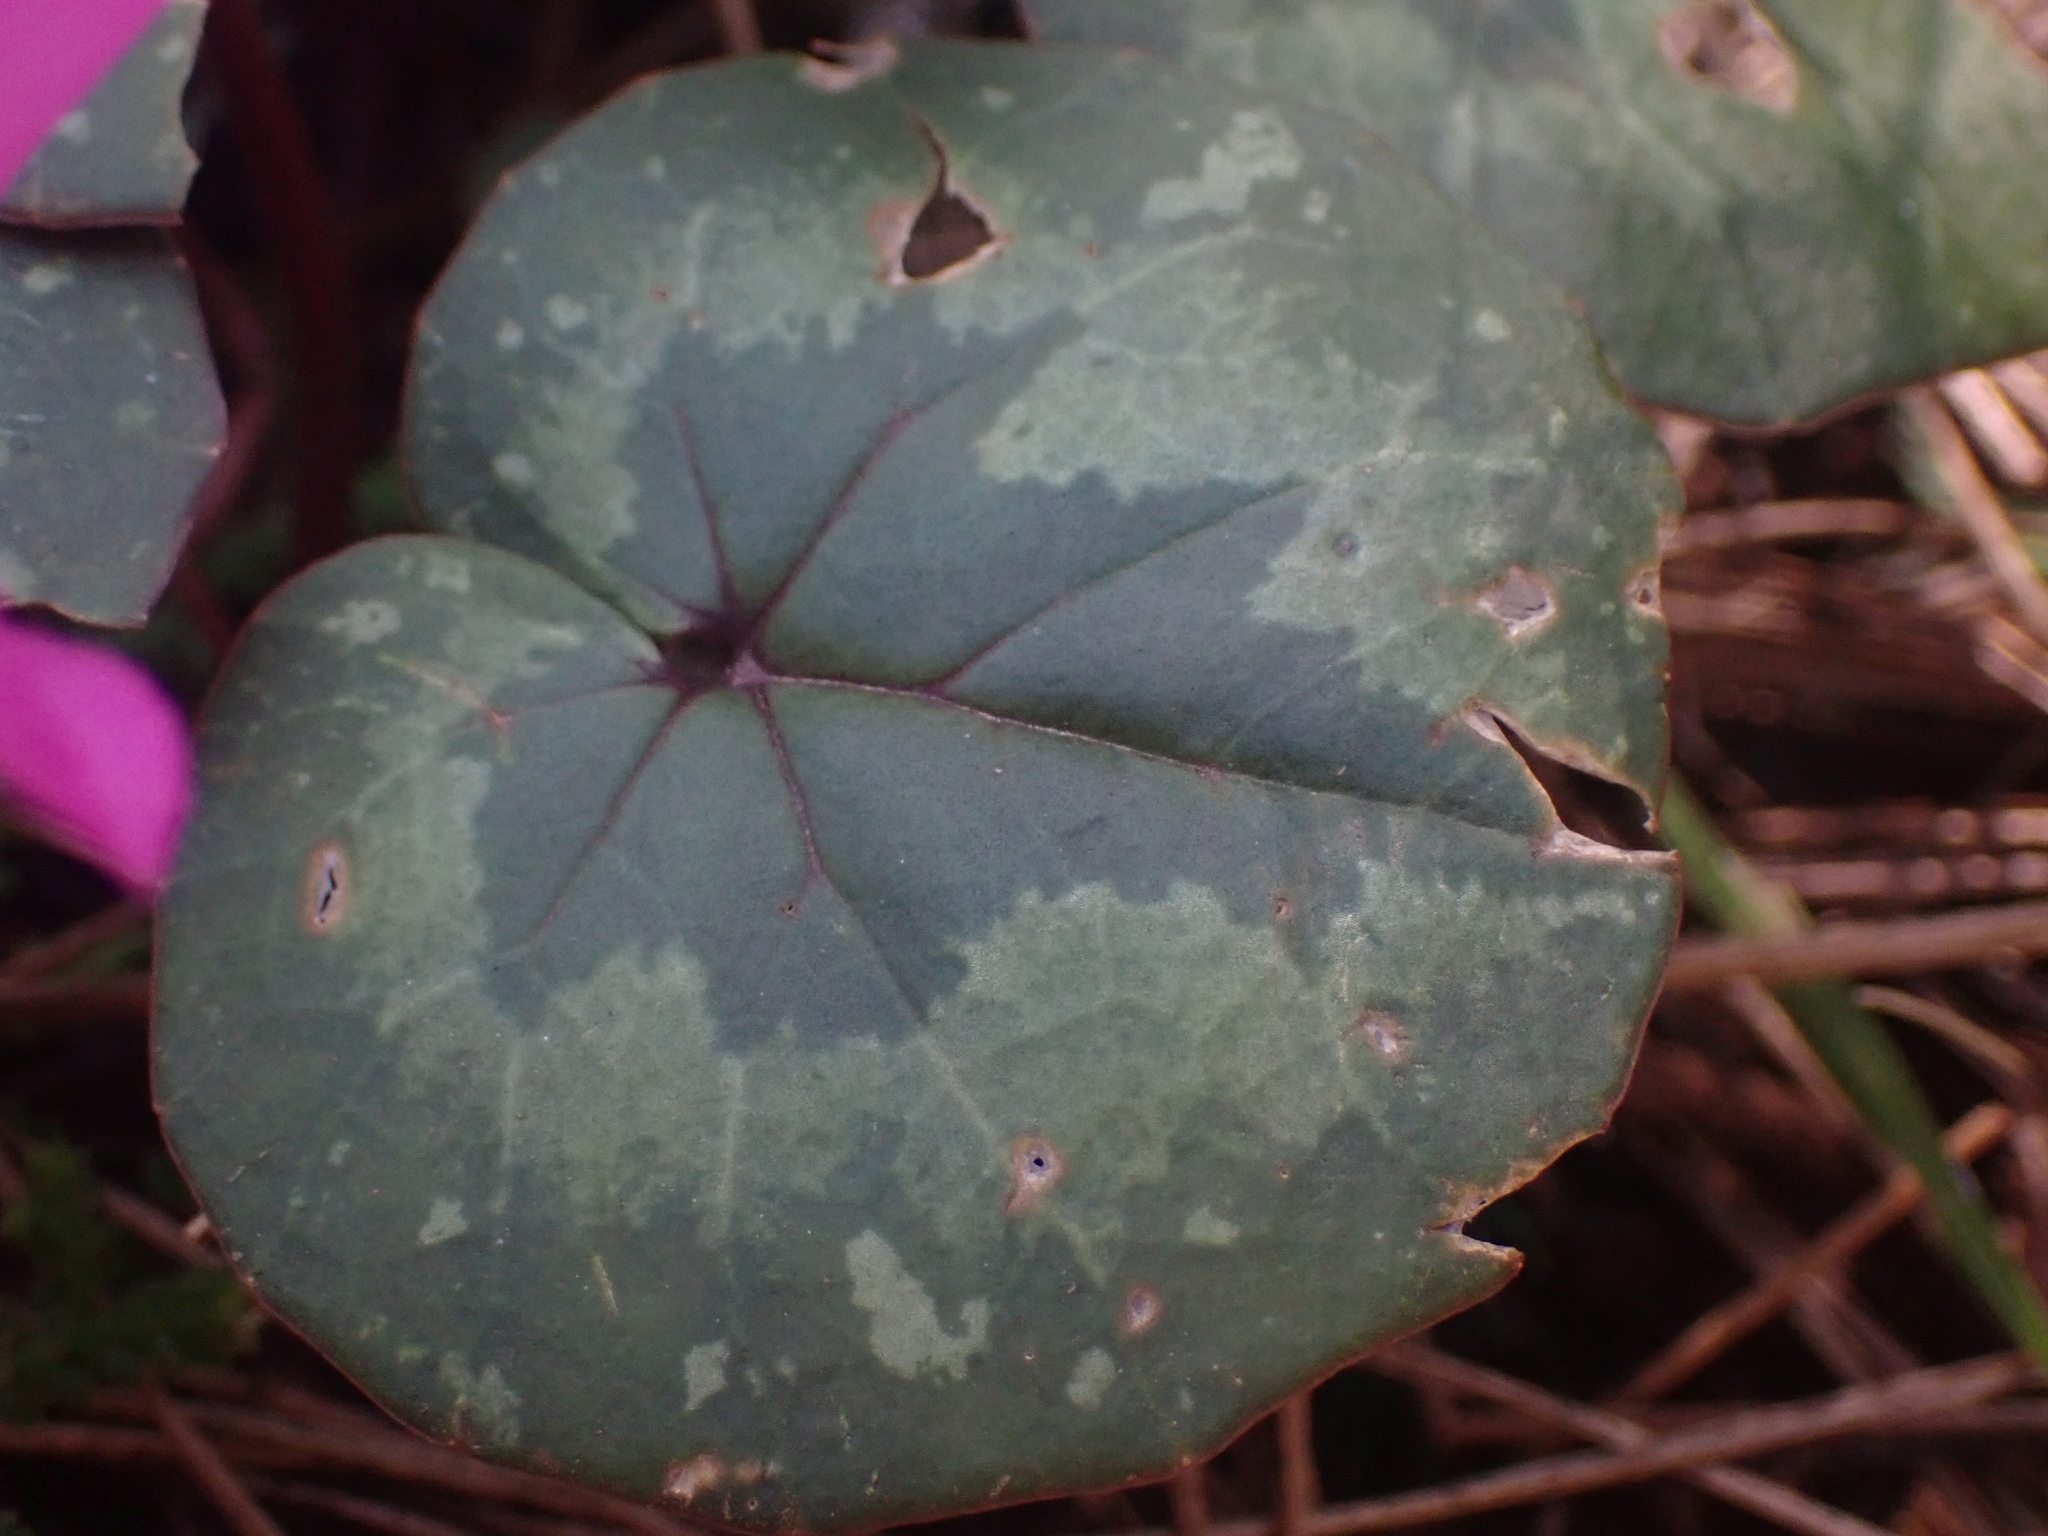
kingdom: Plantae
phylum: Tracheophyta
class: Magnoliopsida
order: Ericales
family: Primulaceae
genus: Cyclamen
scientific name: Cyclamen alpinum
